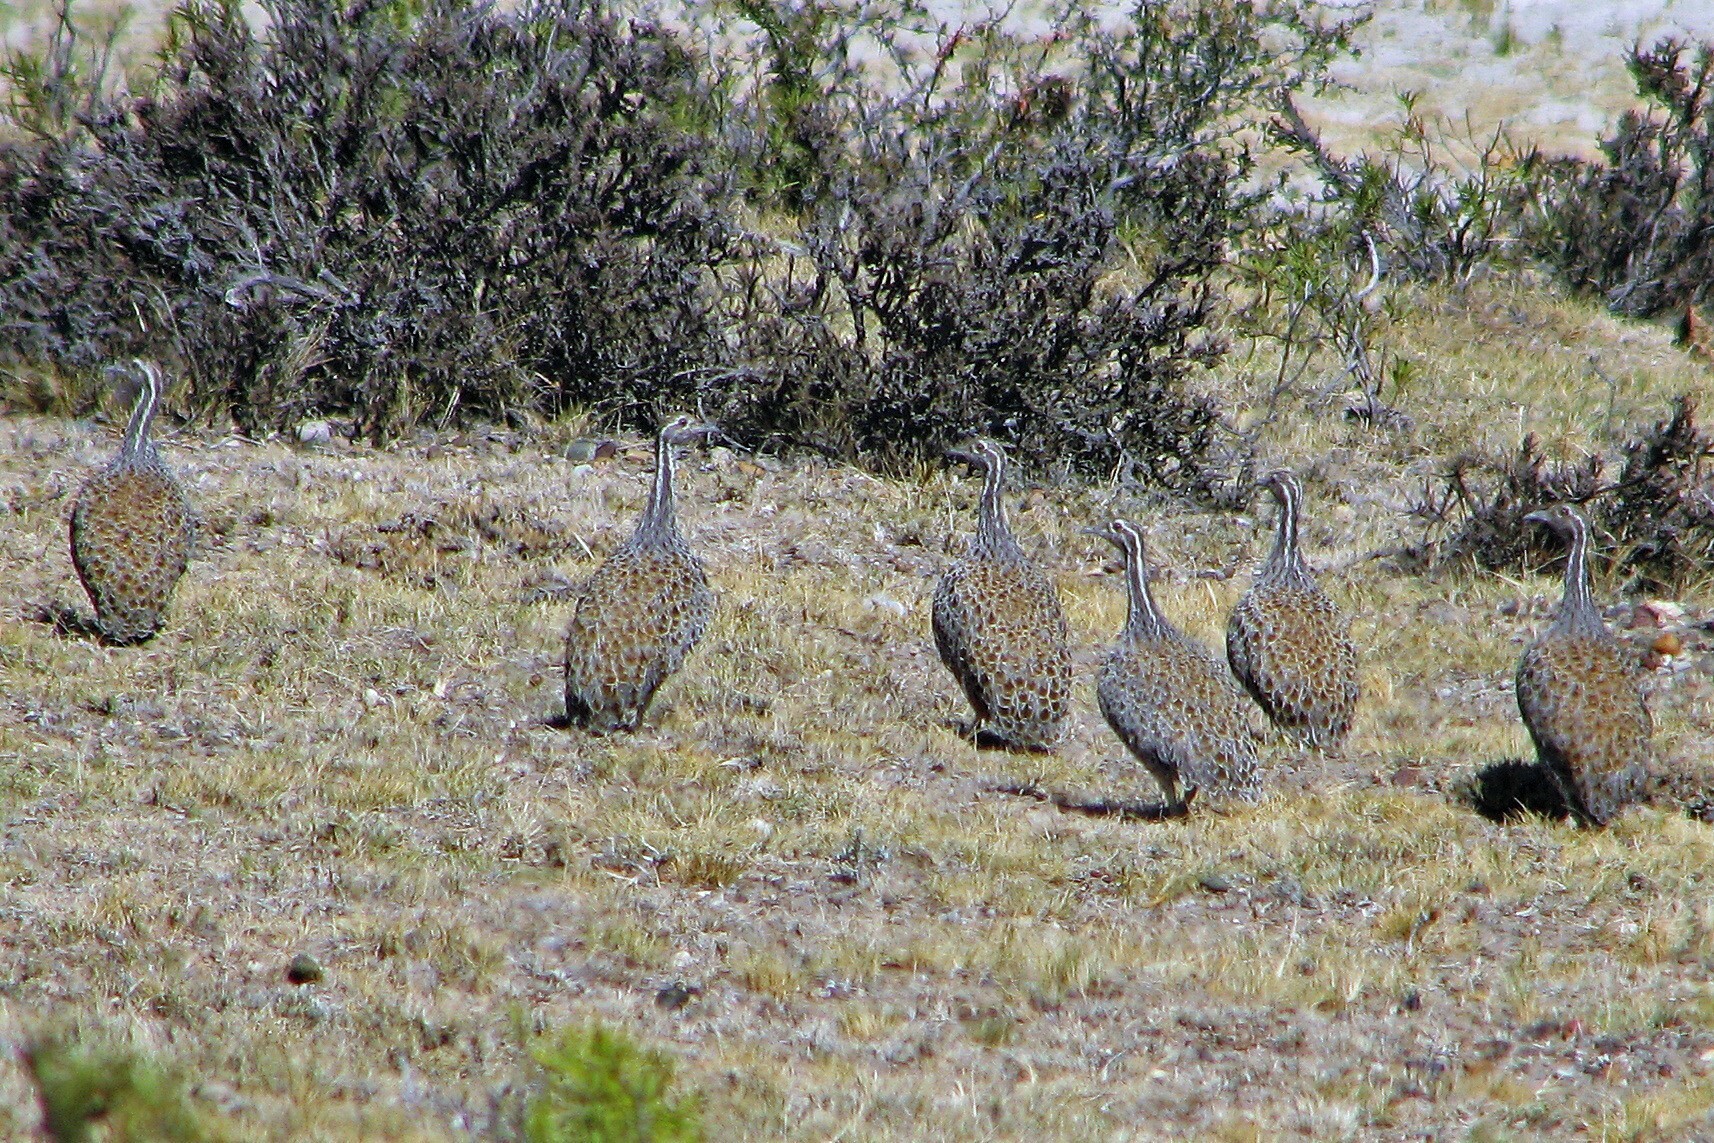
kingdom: Animalia
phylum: Chordata
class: Aves
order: Tinamiformes
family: Tinamidae
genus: Tinamotis
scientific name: Tinamotis ingoufi
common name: Patagonian tinamou
